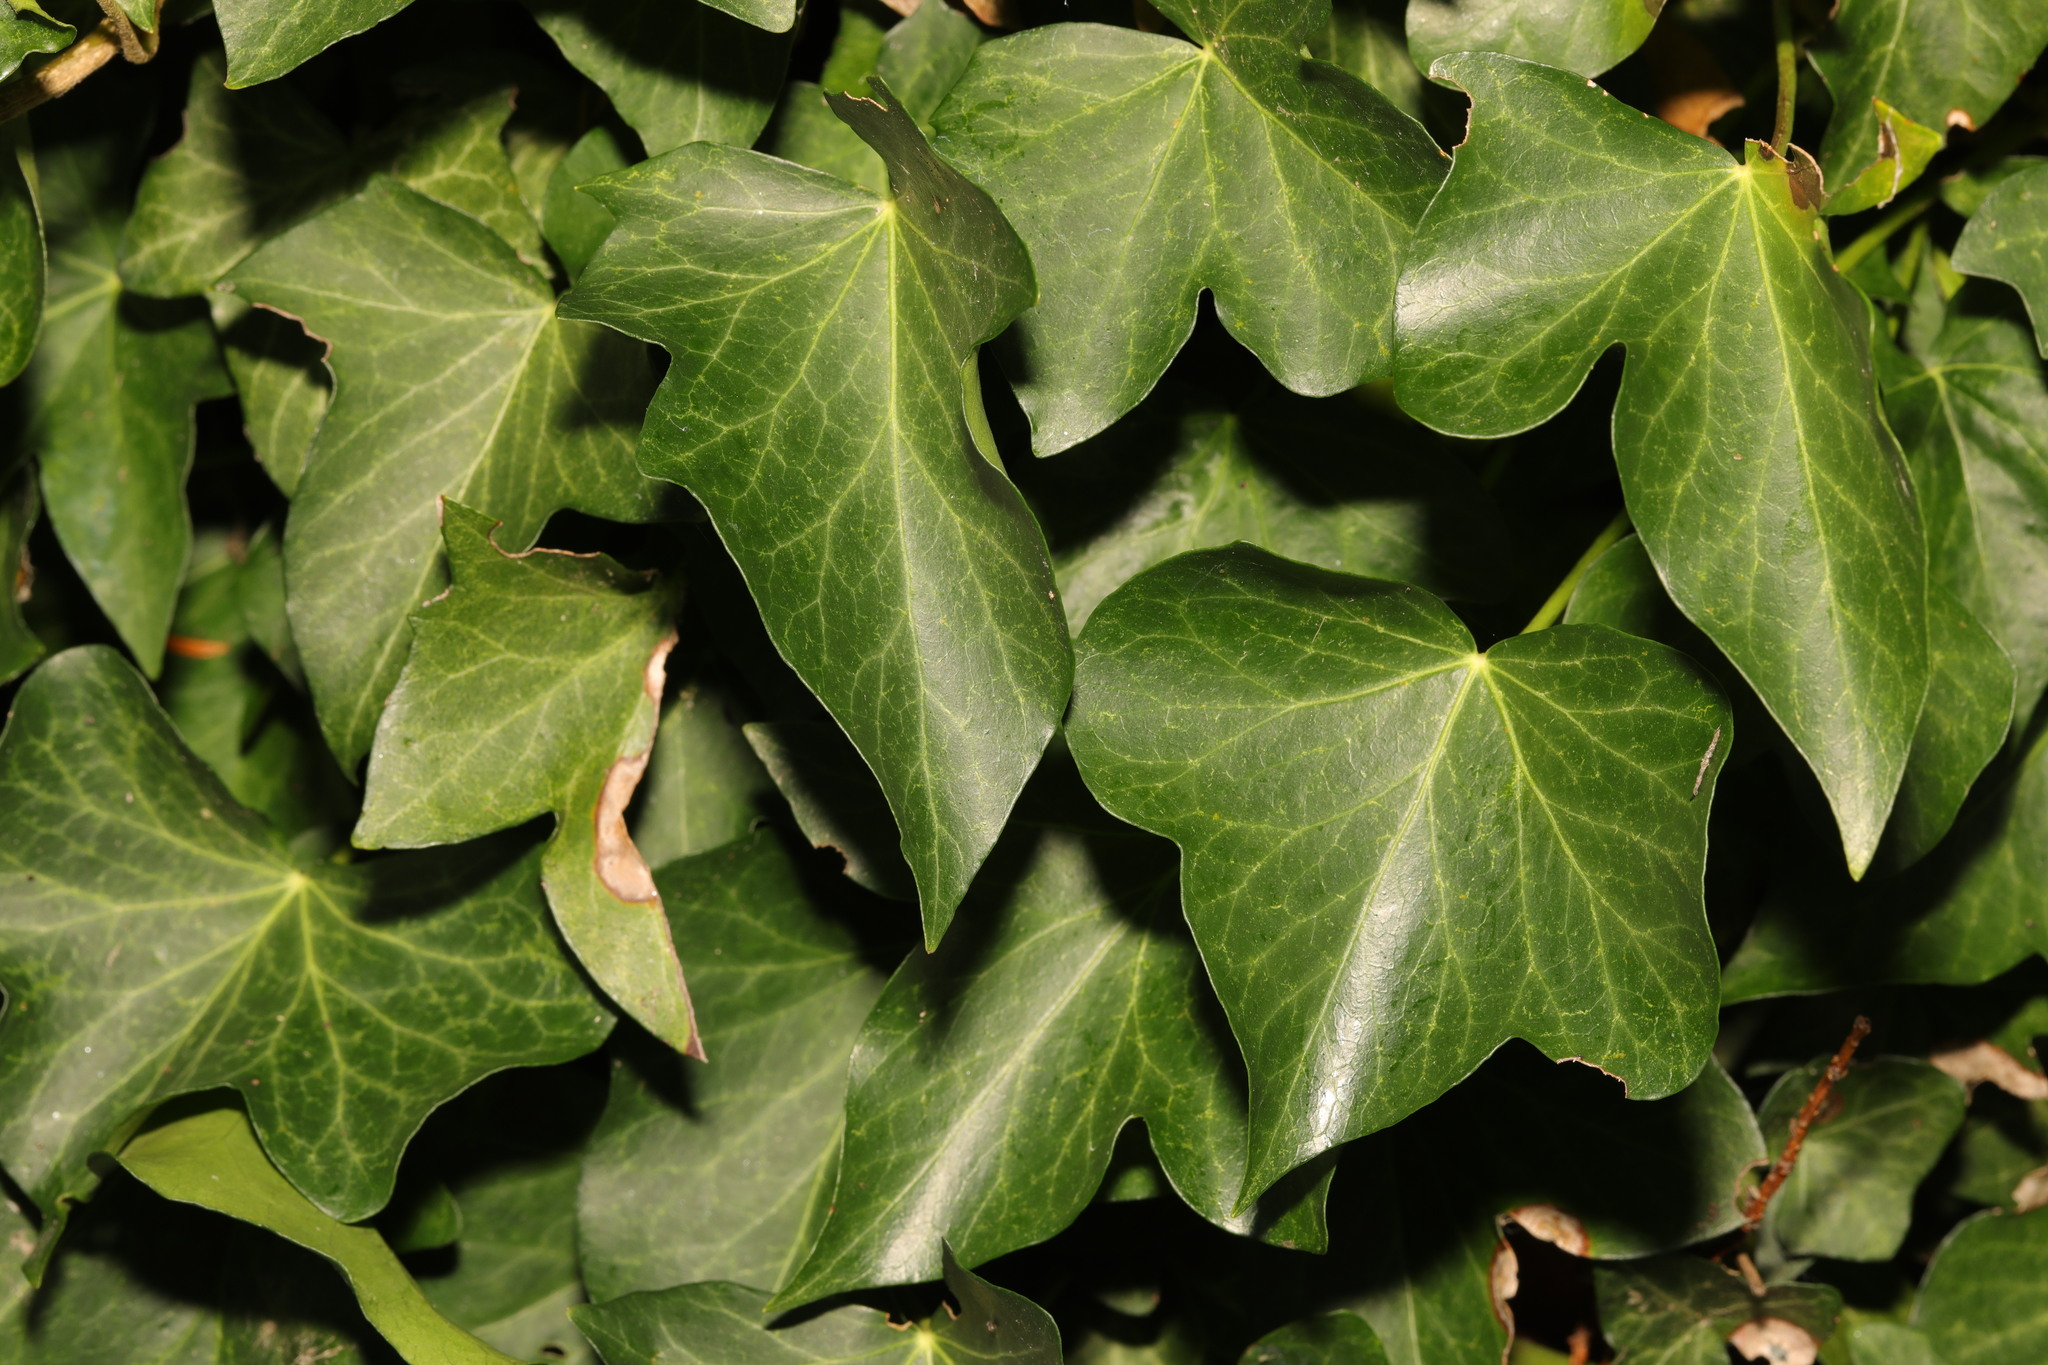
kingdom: Plantae
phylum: Tracheophyta
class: Magnoliopsida
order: Apiales
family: Araliaceae
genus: Hedera
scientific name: Hedera helix
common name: Ivy
